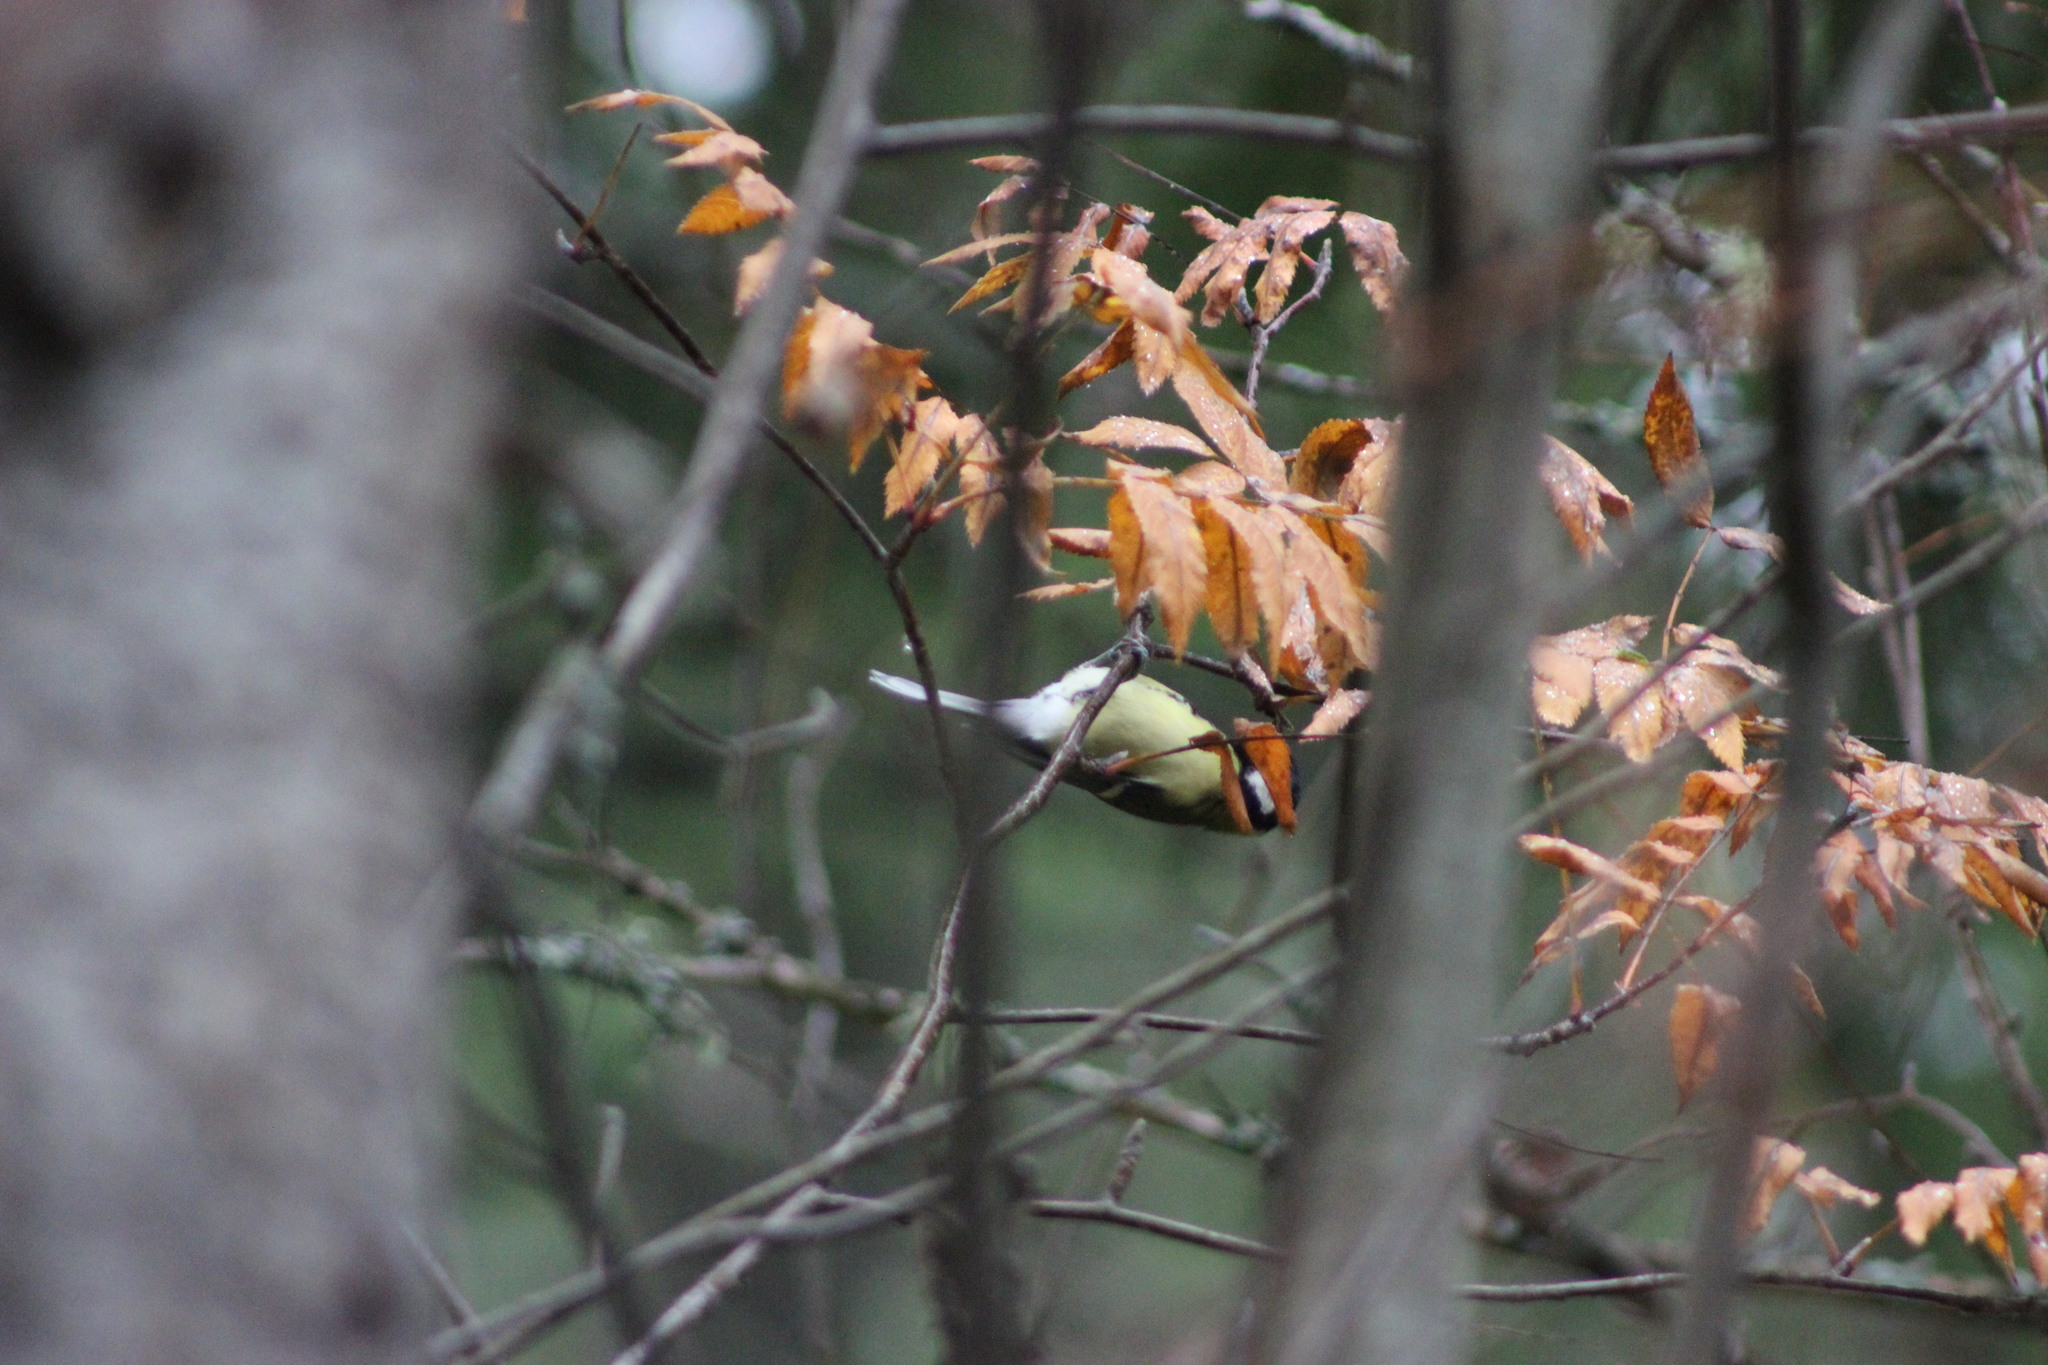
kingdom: Animalia
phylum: Chordata
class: Aves
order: Passeriformes
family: Paridae
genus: Parus
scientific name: Parus major
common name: Great tit
